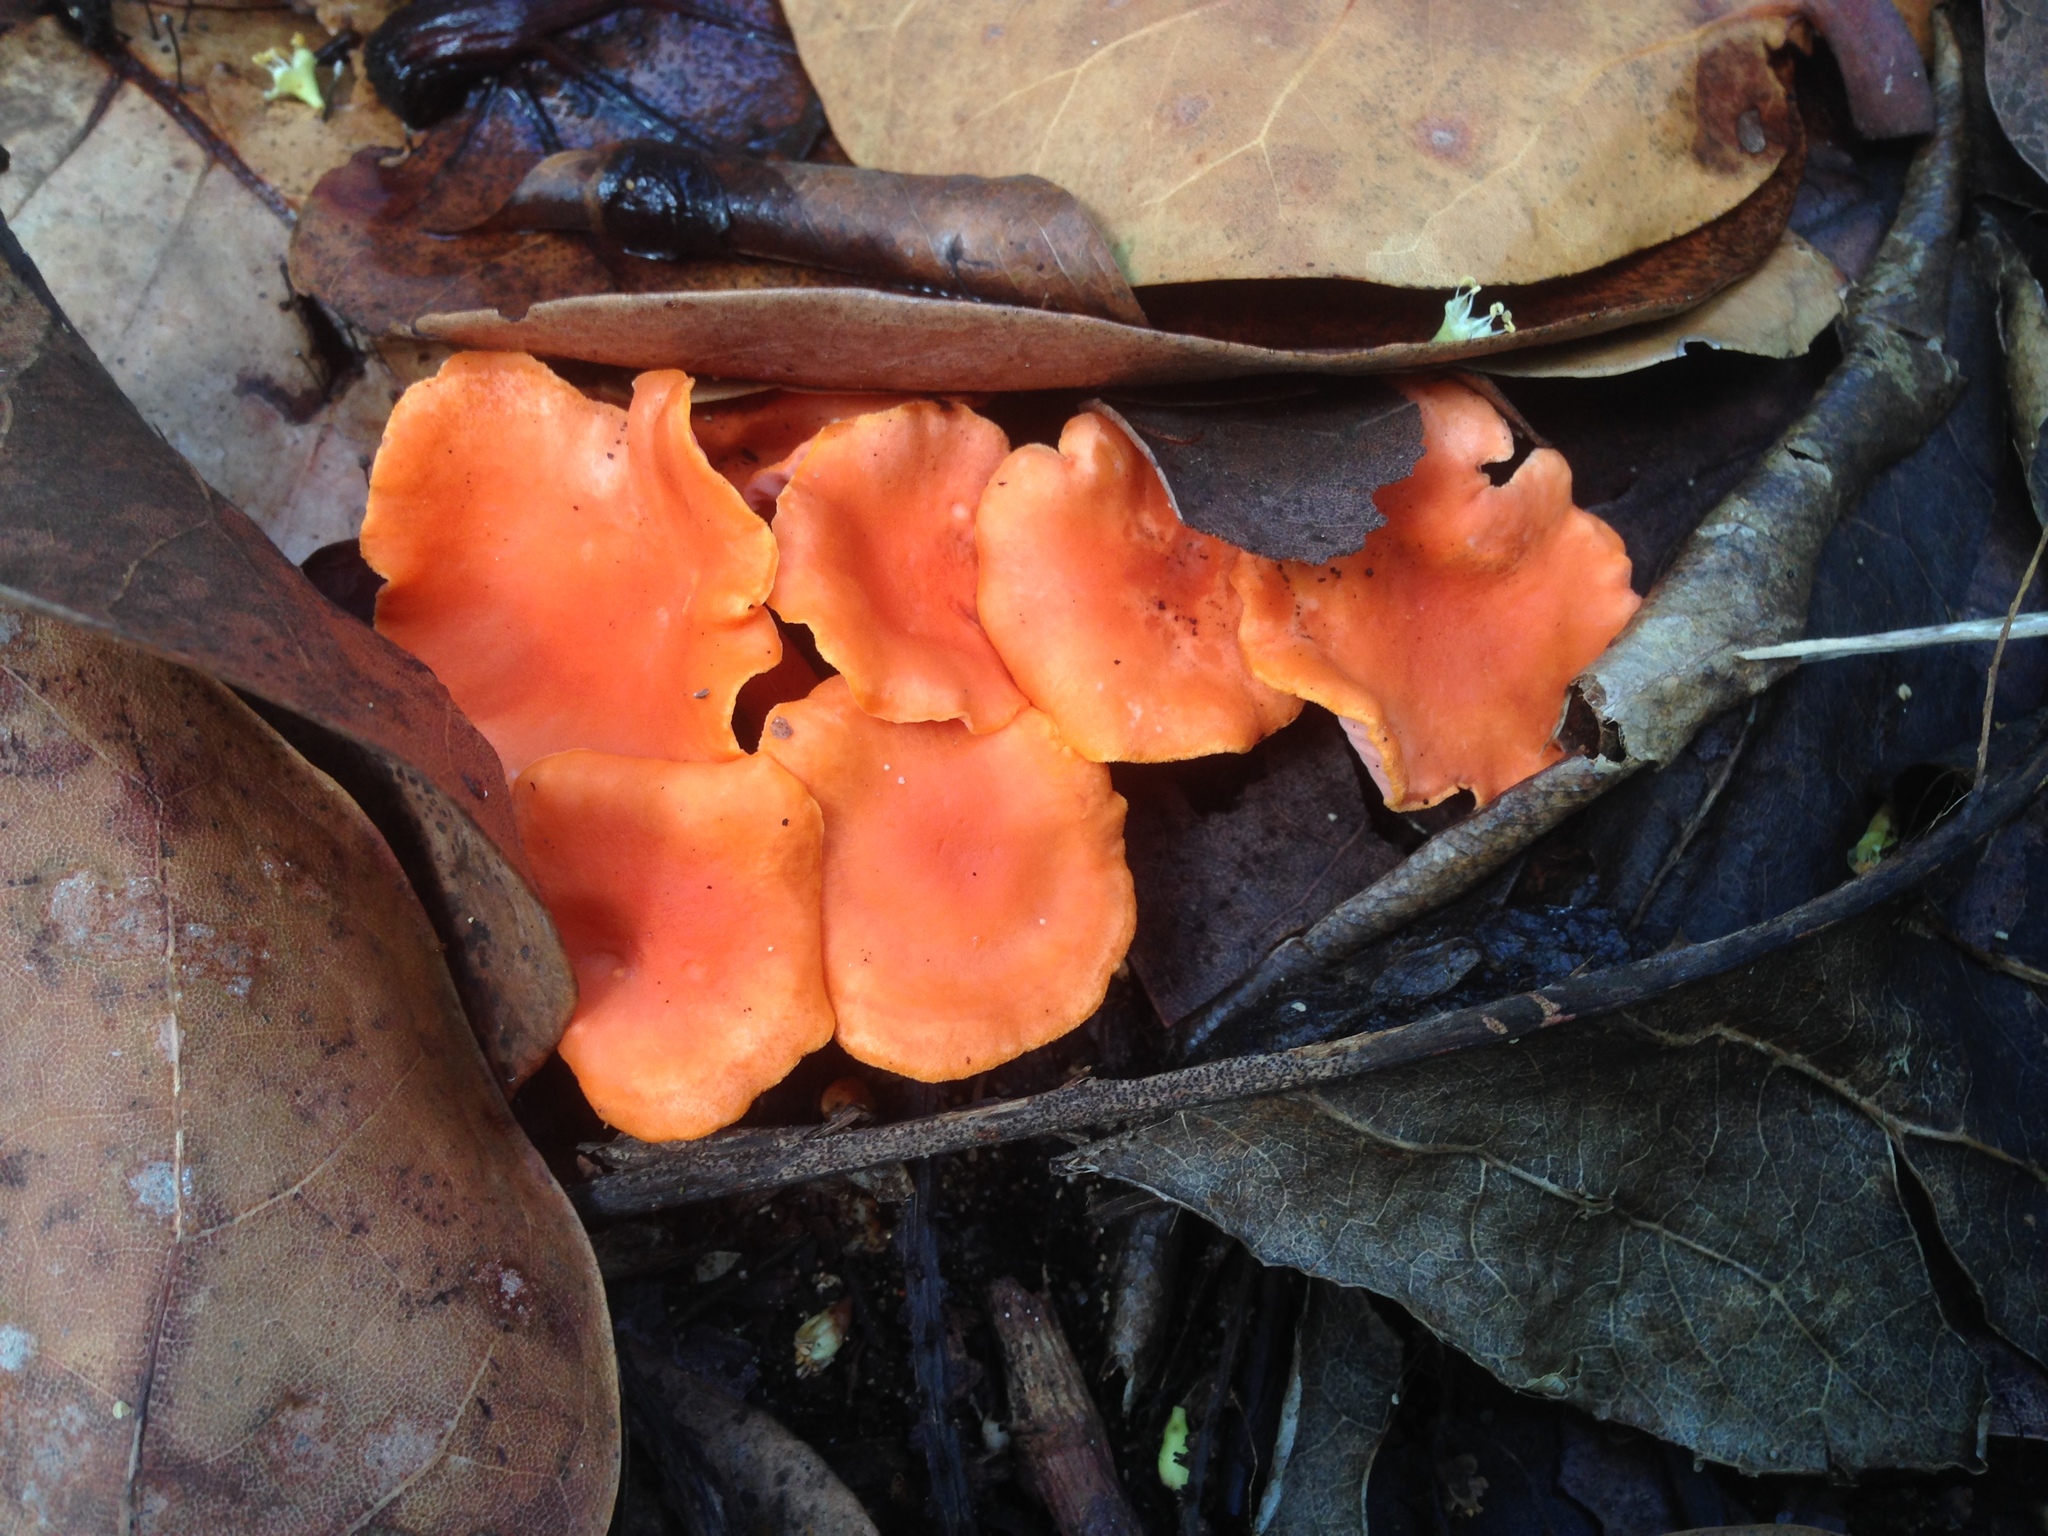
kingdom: Fungi
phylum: Basidiomycota
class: Agaricomycetes
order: Cantharellales
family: Hydnaceae
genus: Cantharellus
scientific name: Cantharellus coccolobae
